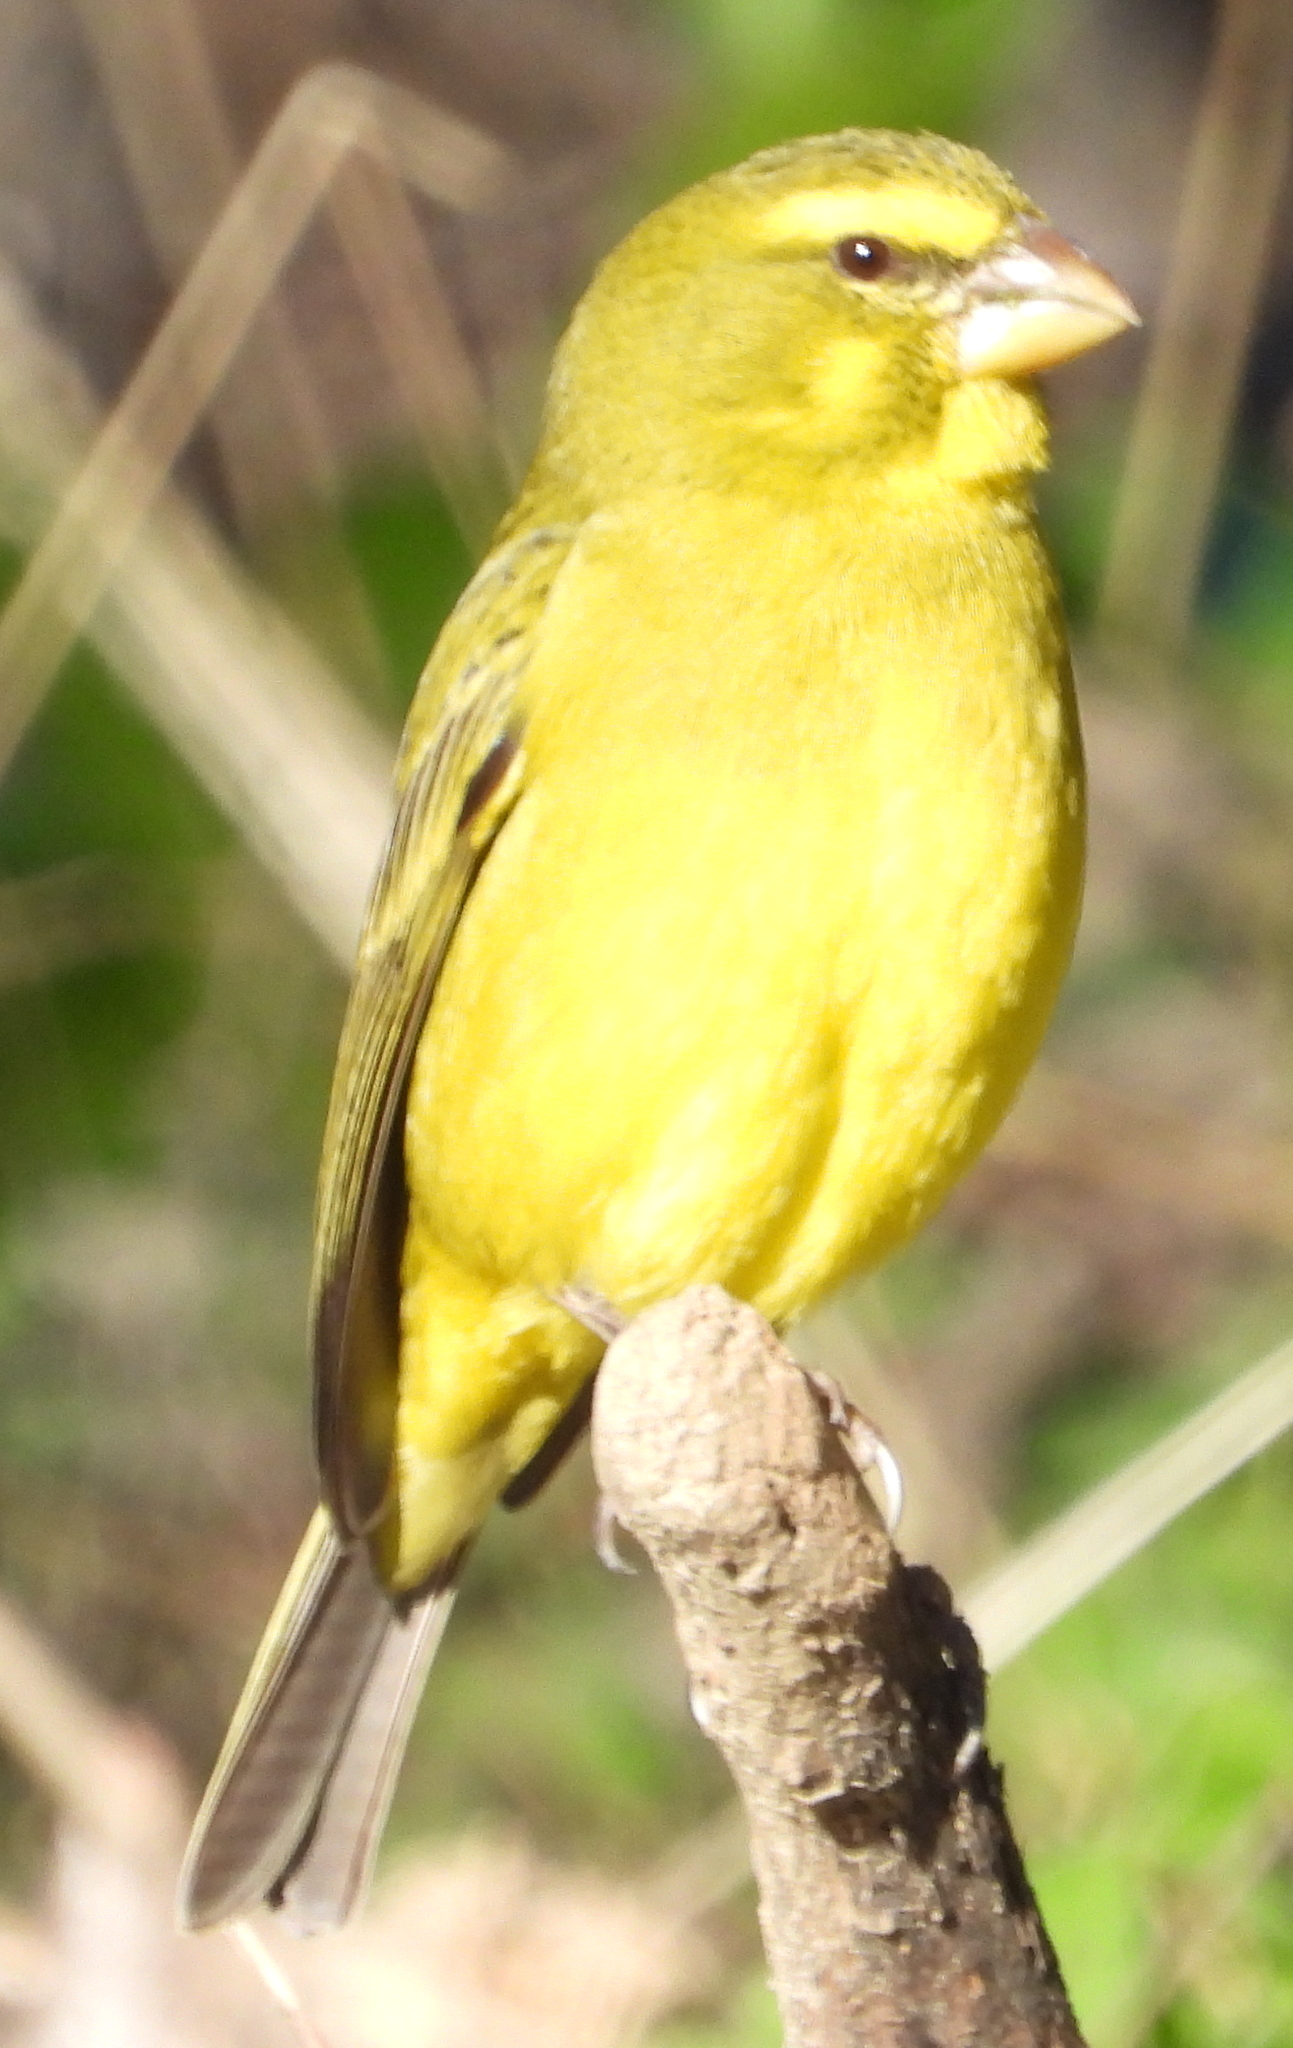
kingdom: Animalia
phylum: Chordata
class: Aves
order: Passeriformes
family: Fringillidae
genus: Crithagra
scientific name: Crithagra sulphurata
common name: Brimstone canary
